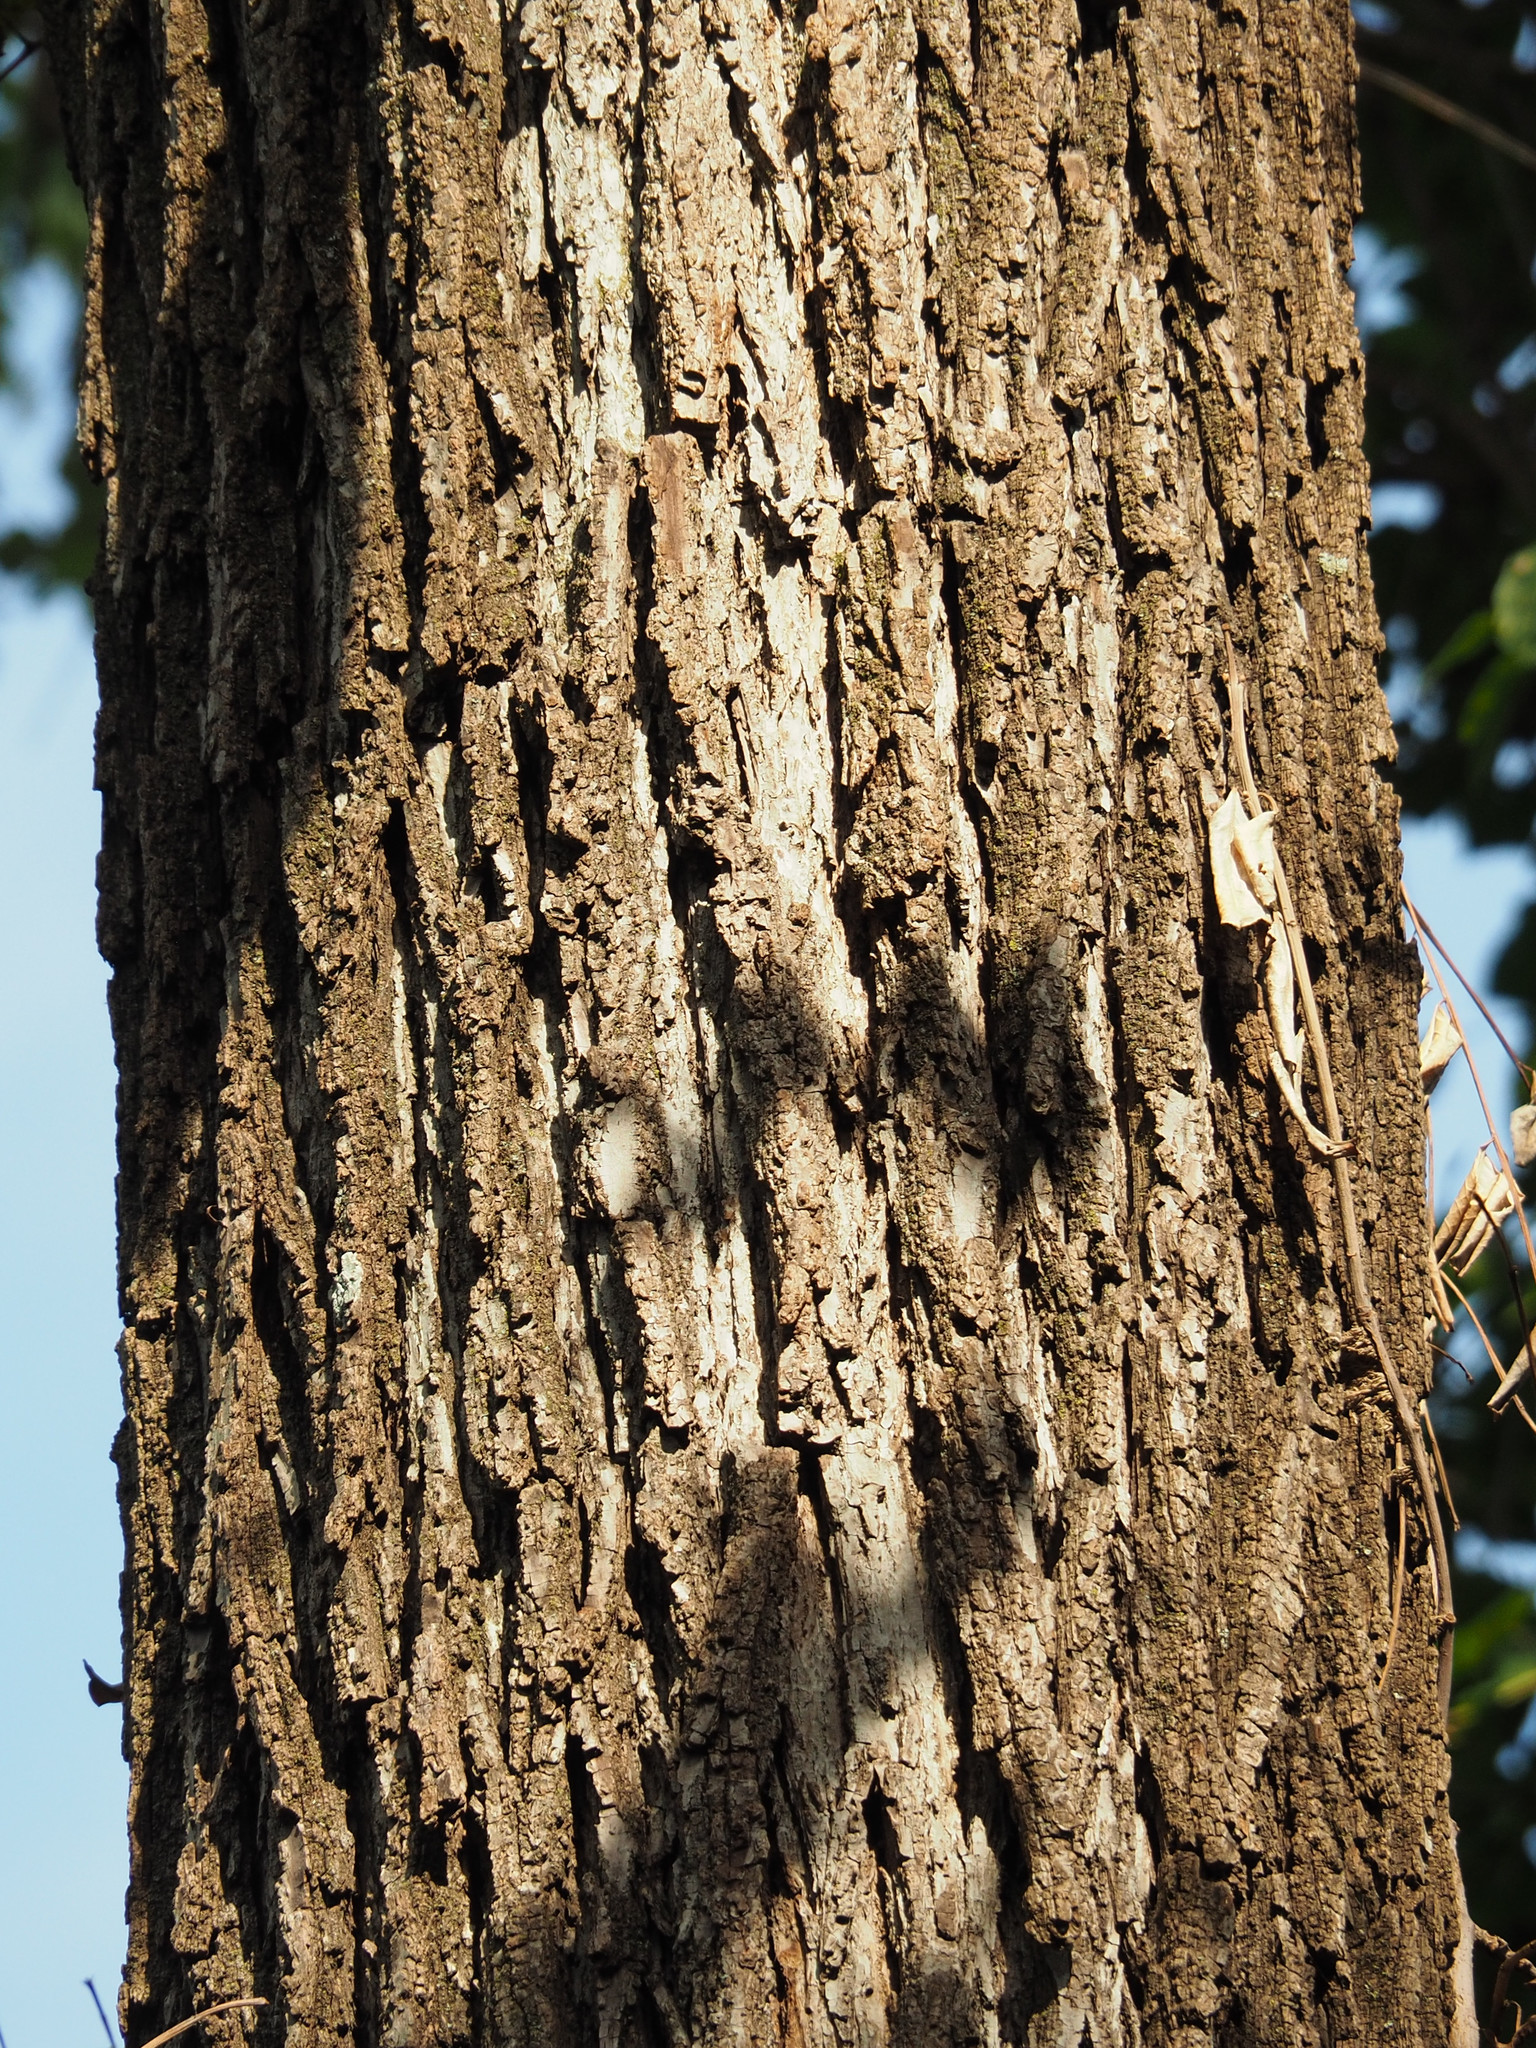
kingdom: Plantae
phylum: Tracheophyta
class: Magnoliopsida
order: Fagales
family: Juglandaceae
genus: Juglans
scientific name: Juglans nigra
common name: Black walnut
